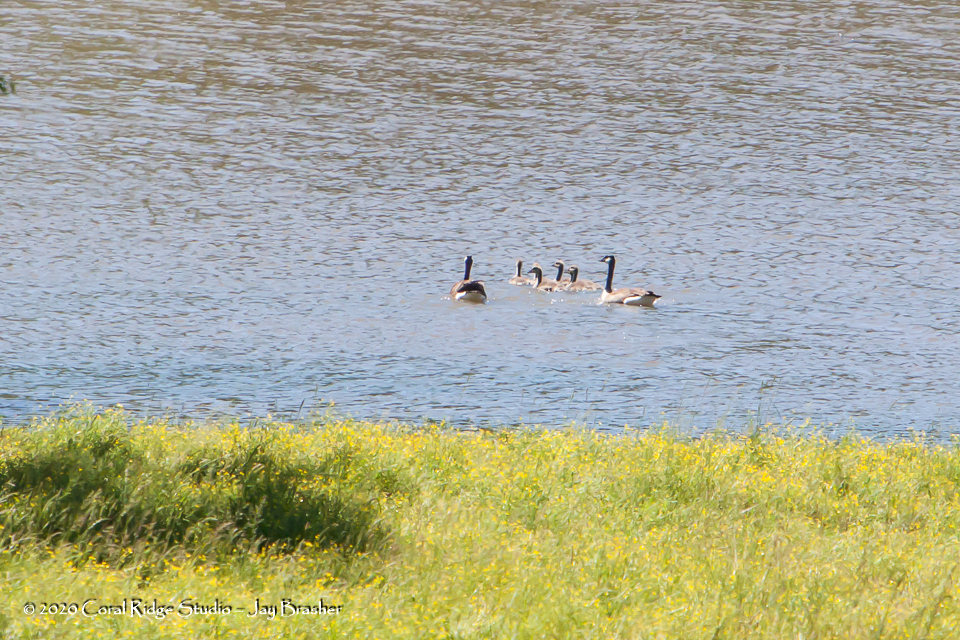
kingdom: Animalia
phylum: Chordata
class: Aves
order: Anseriformes
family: Anatidae
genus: Branta
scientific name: Branta canadensis
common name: Canada goose
